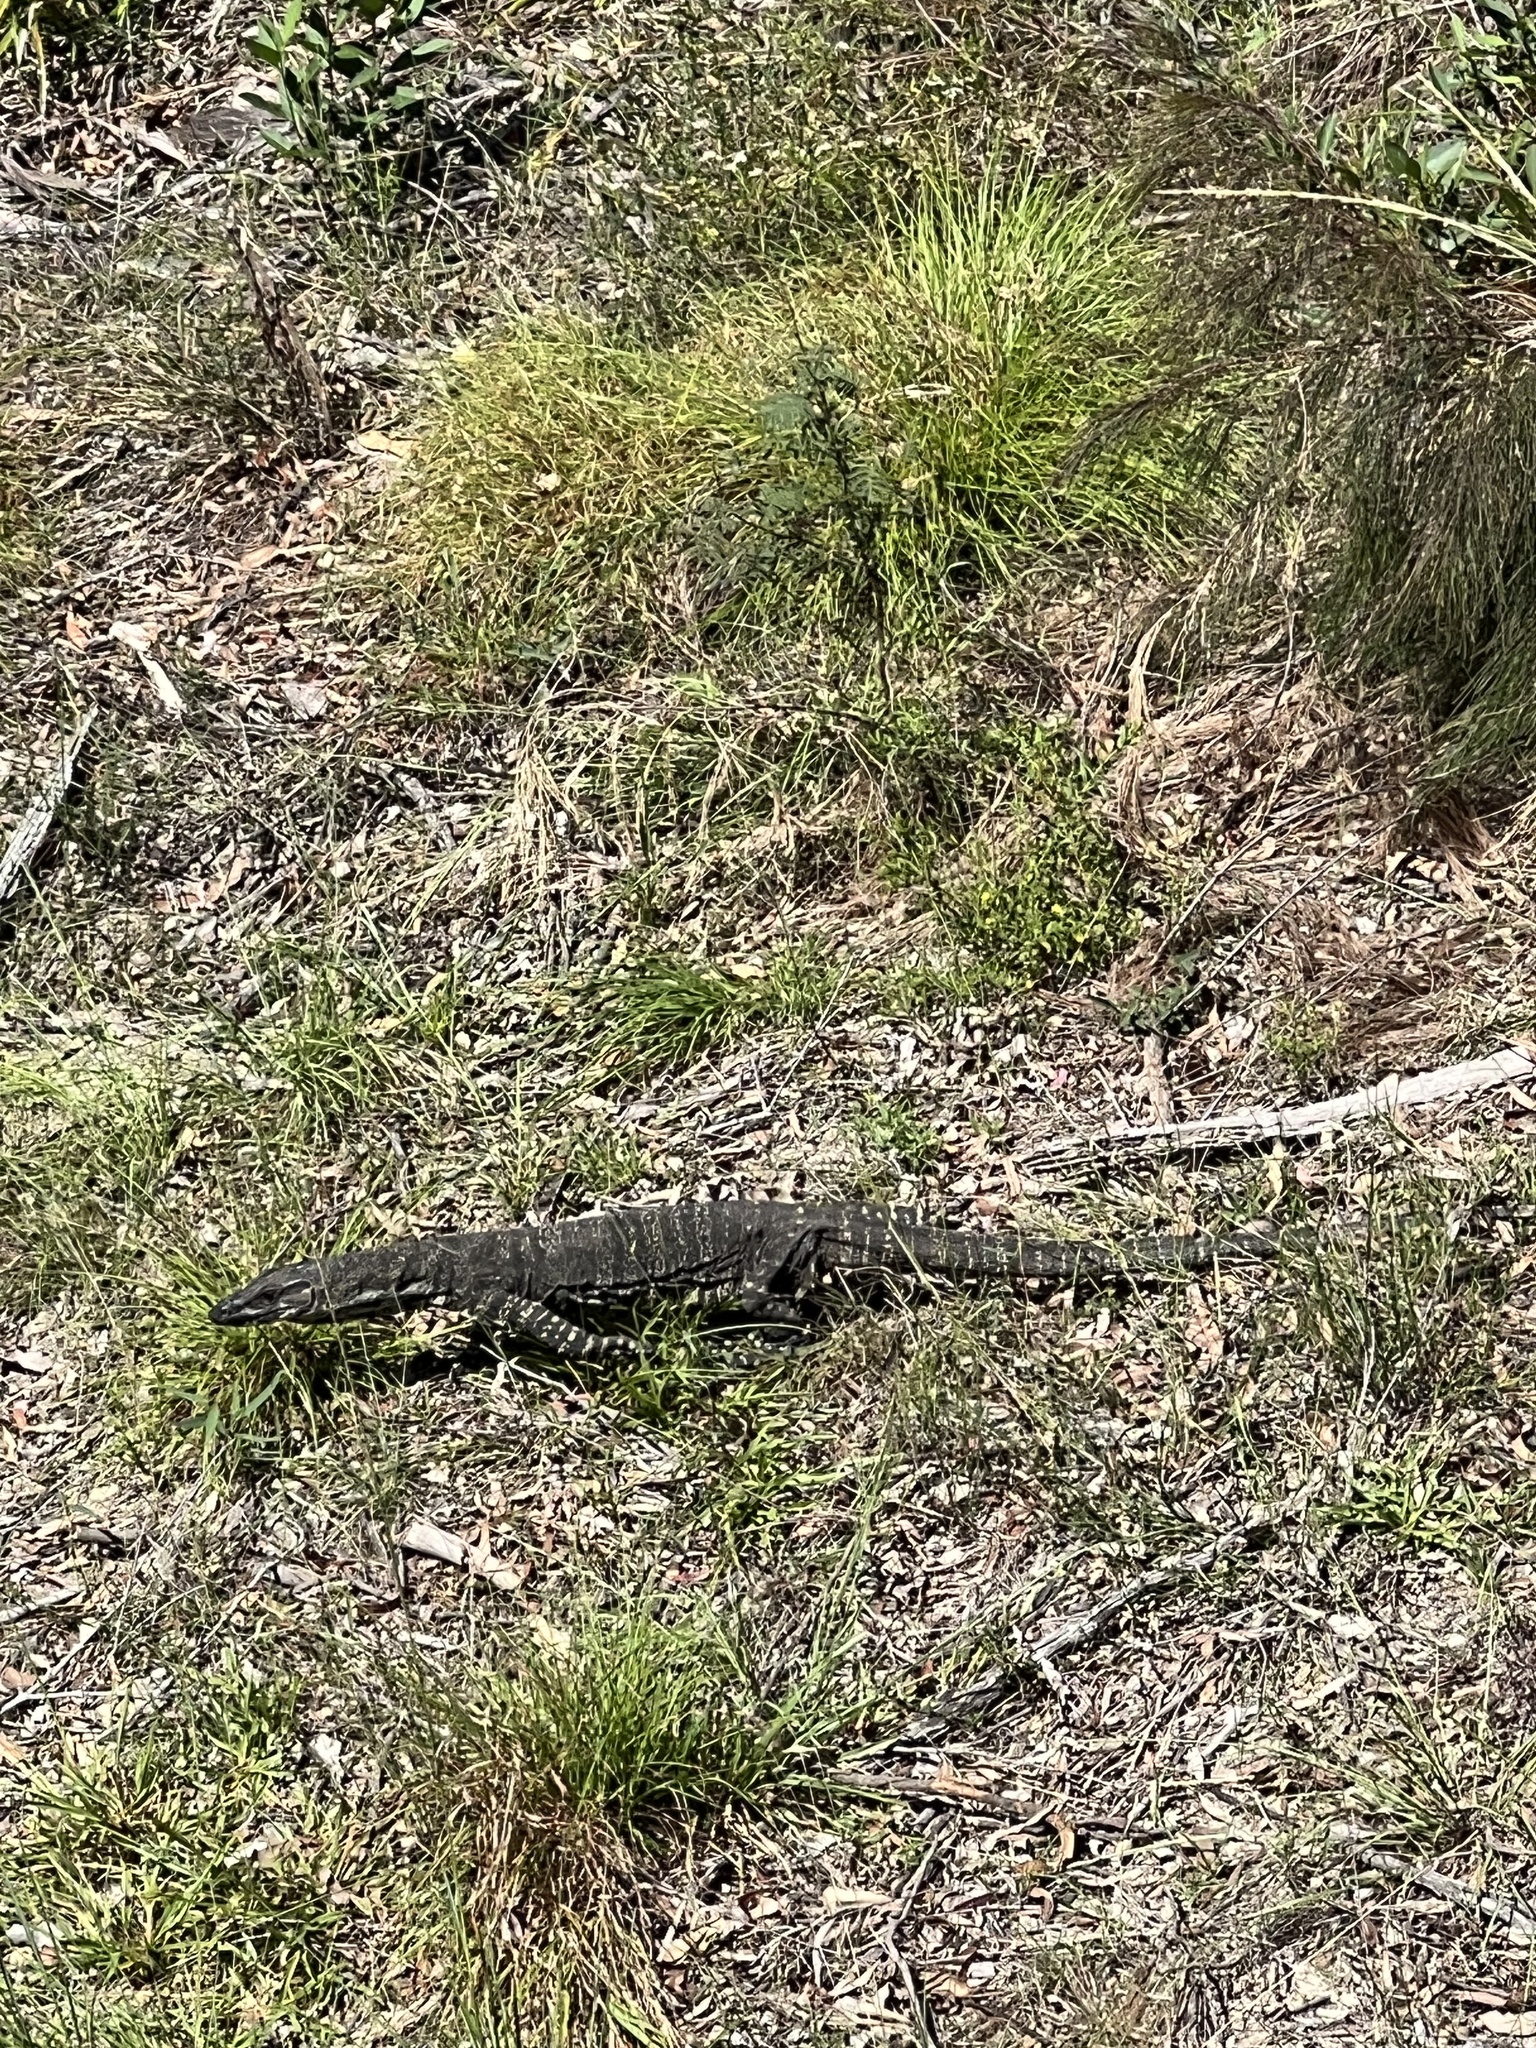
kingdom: Animalia
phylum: Chordata
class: Squamata
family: Varanidae
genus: Varanus
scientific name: Varanus varius
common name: Lace monitor
